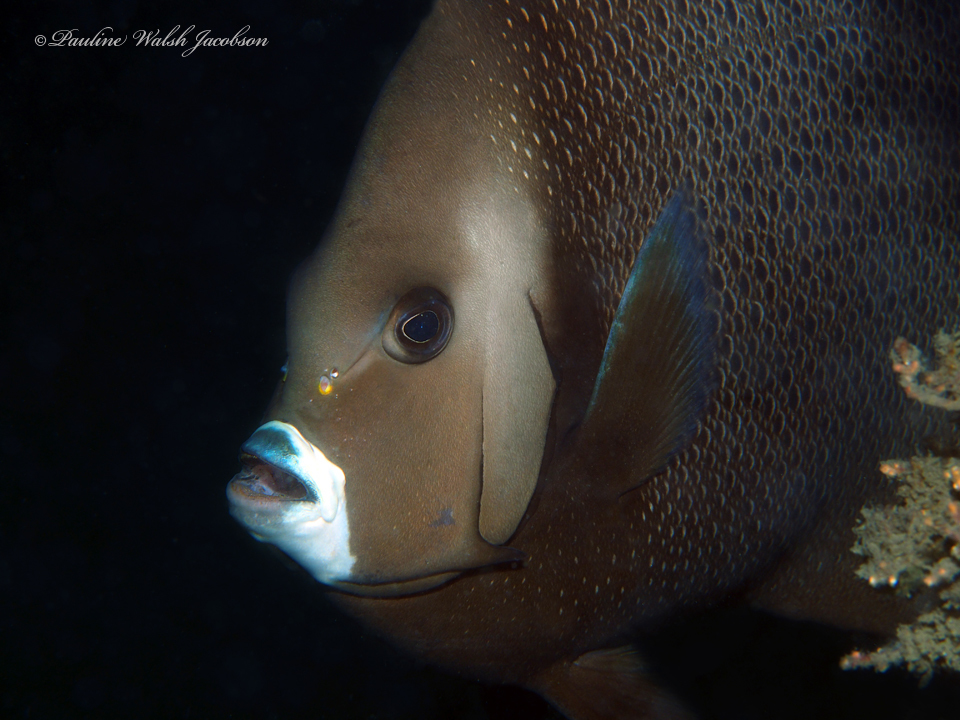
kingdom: Animalia
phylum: Chordata
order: Perciformes
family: Pomacanthidae
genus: Pomacanthus
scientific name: Pomacanthus arcuatus
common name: Gray angelfish
